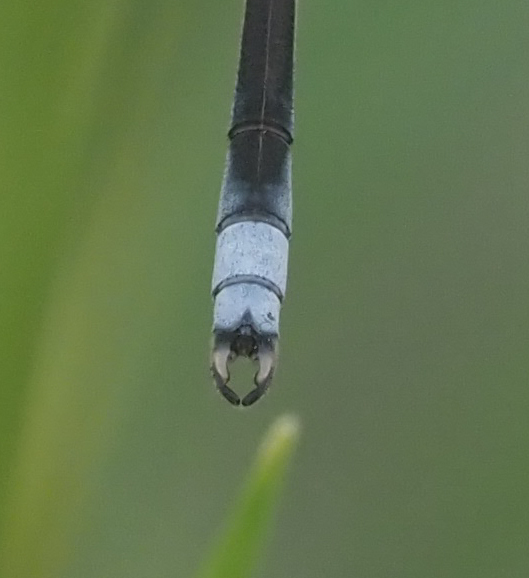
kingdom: Animalia
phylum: Arthropoda
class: Insecta
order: Odonata
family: Lestidae
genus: Lestes
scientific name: Lestes pallidus
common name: Pallid spreadwing
